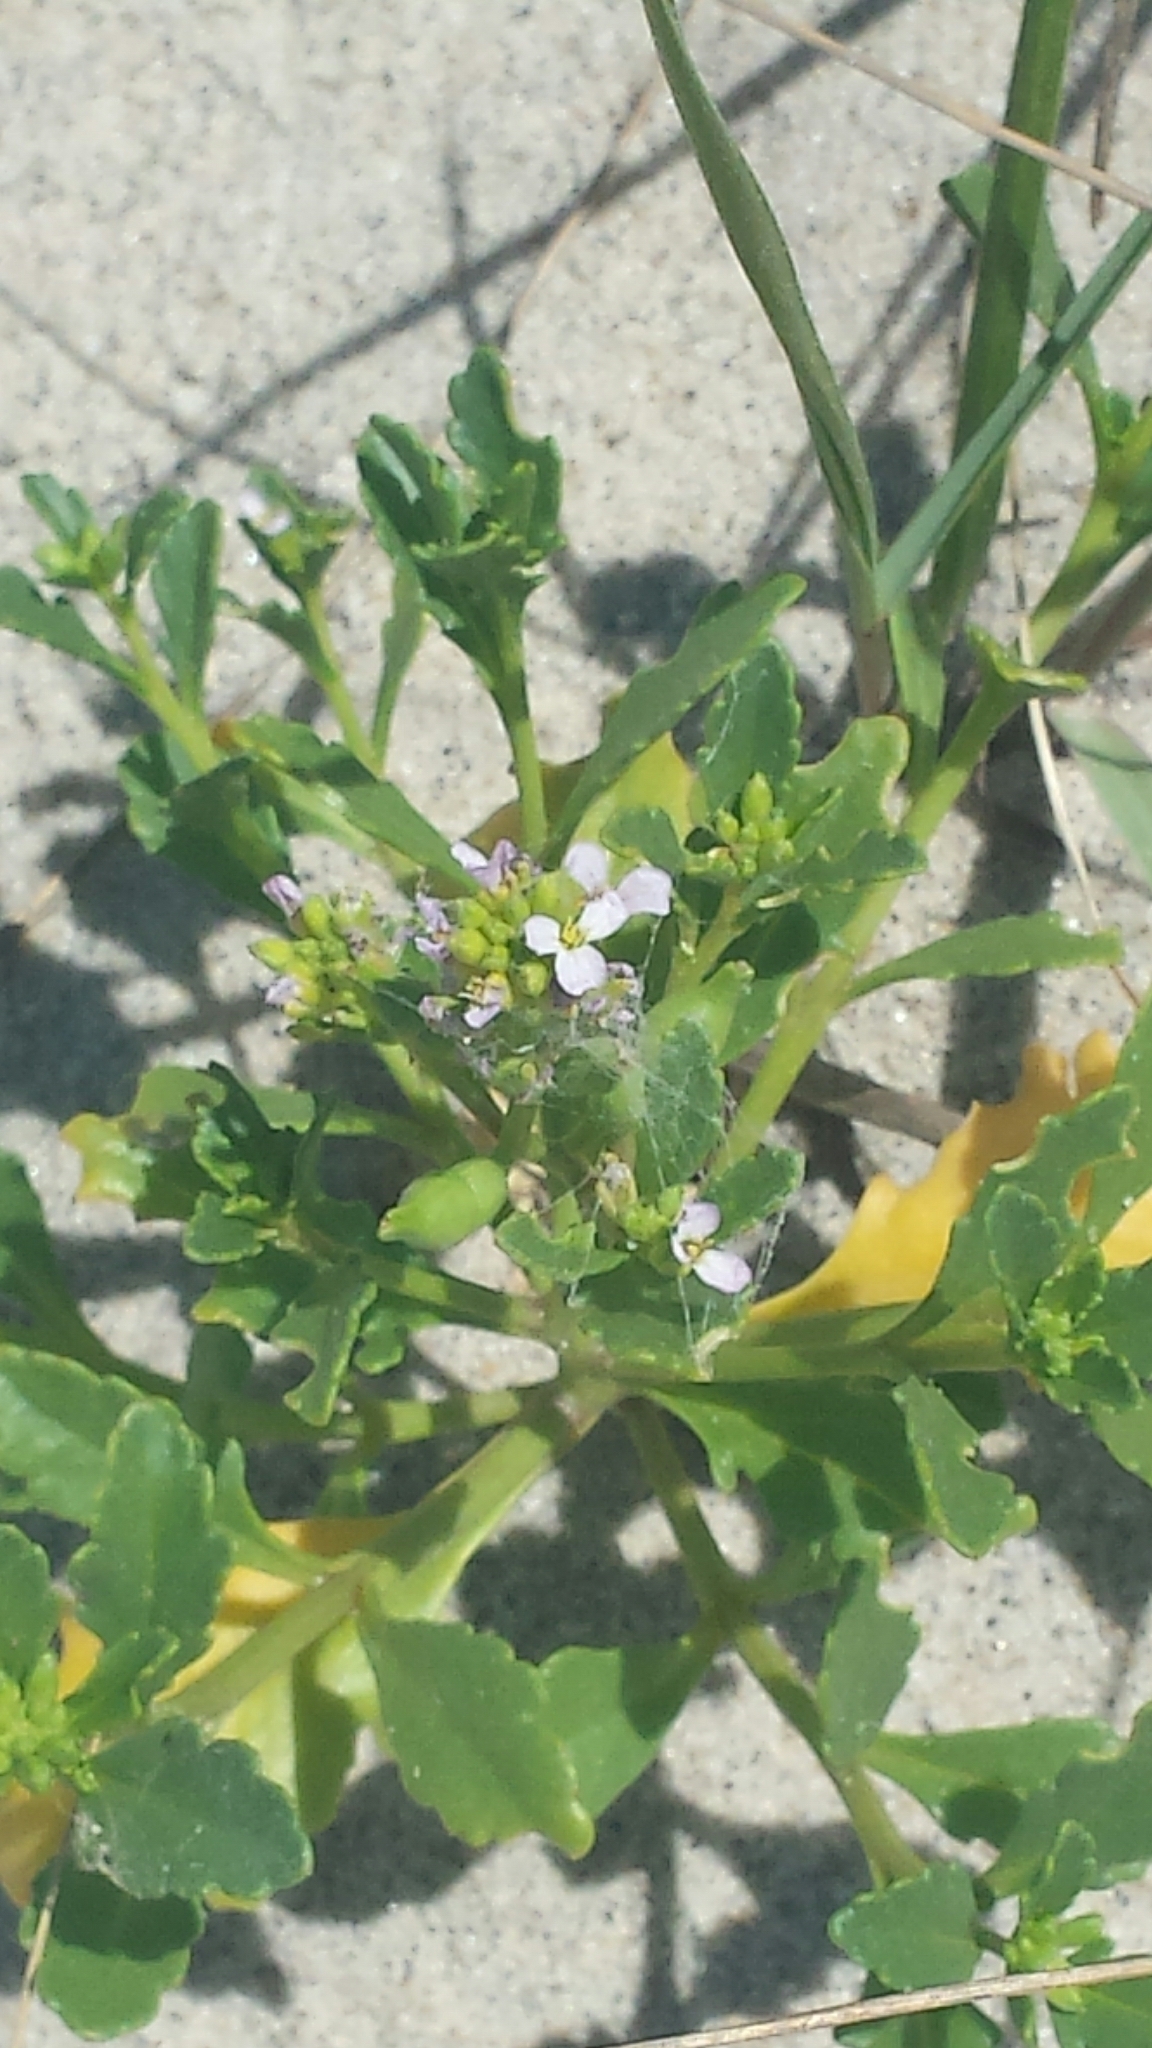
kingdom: Plantae
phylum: Tracheophyta
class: Magnoliopsida
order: Brassicales
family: Brassicaceae
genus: Cakile
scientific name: Cakile edentula
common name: American sea rocket
